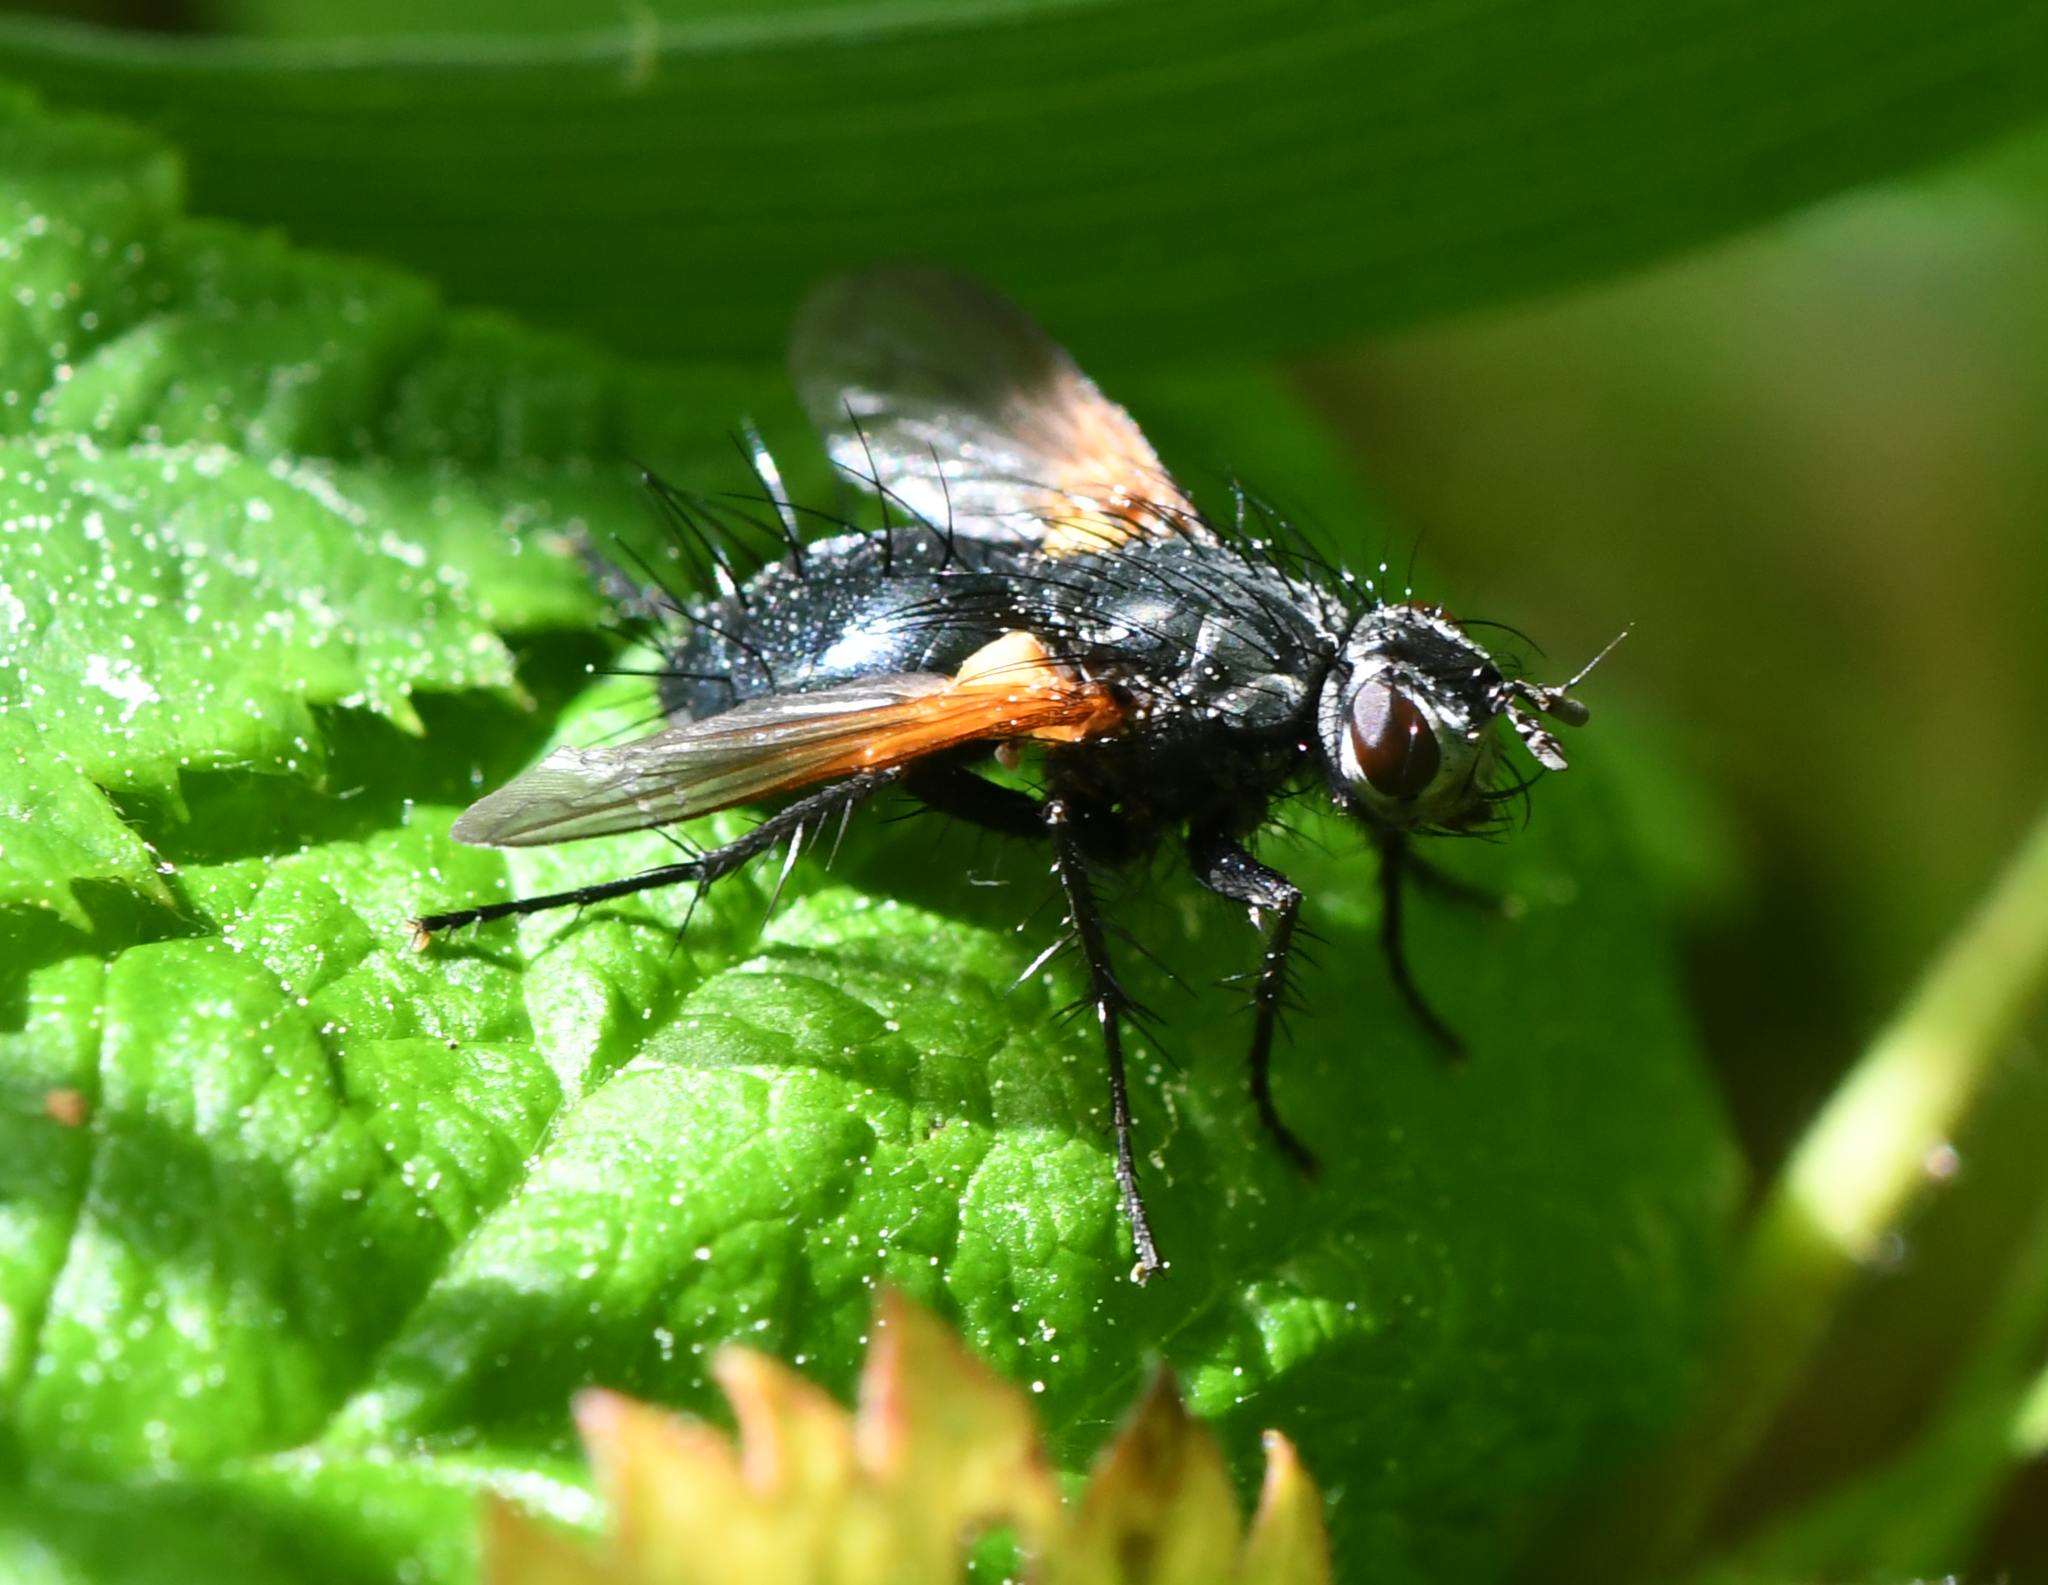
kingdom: Animalia
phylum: Arthropoda
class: Insecta
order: Diptera
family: Tachinidae
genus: Zophomyia
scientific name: Zophomyia temula
